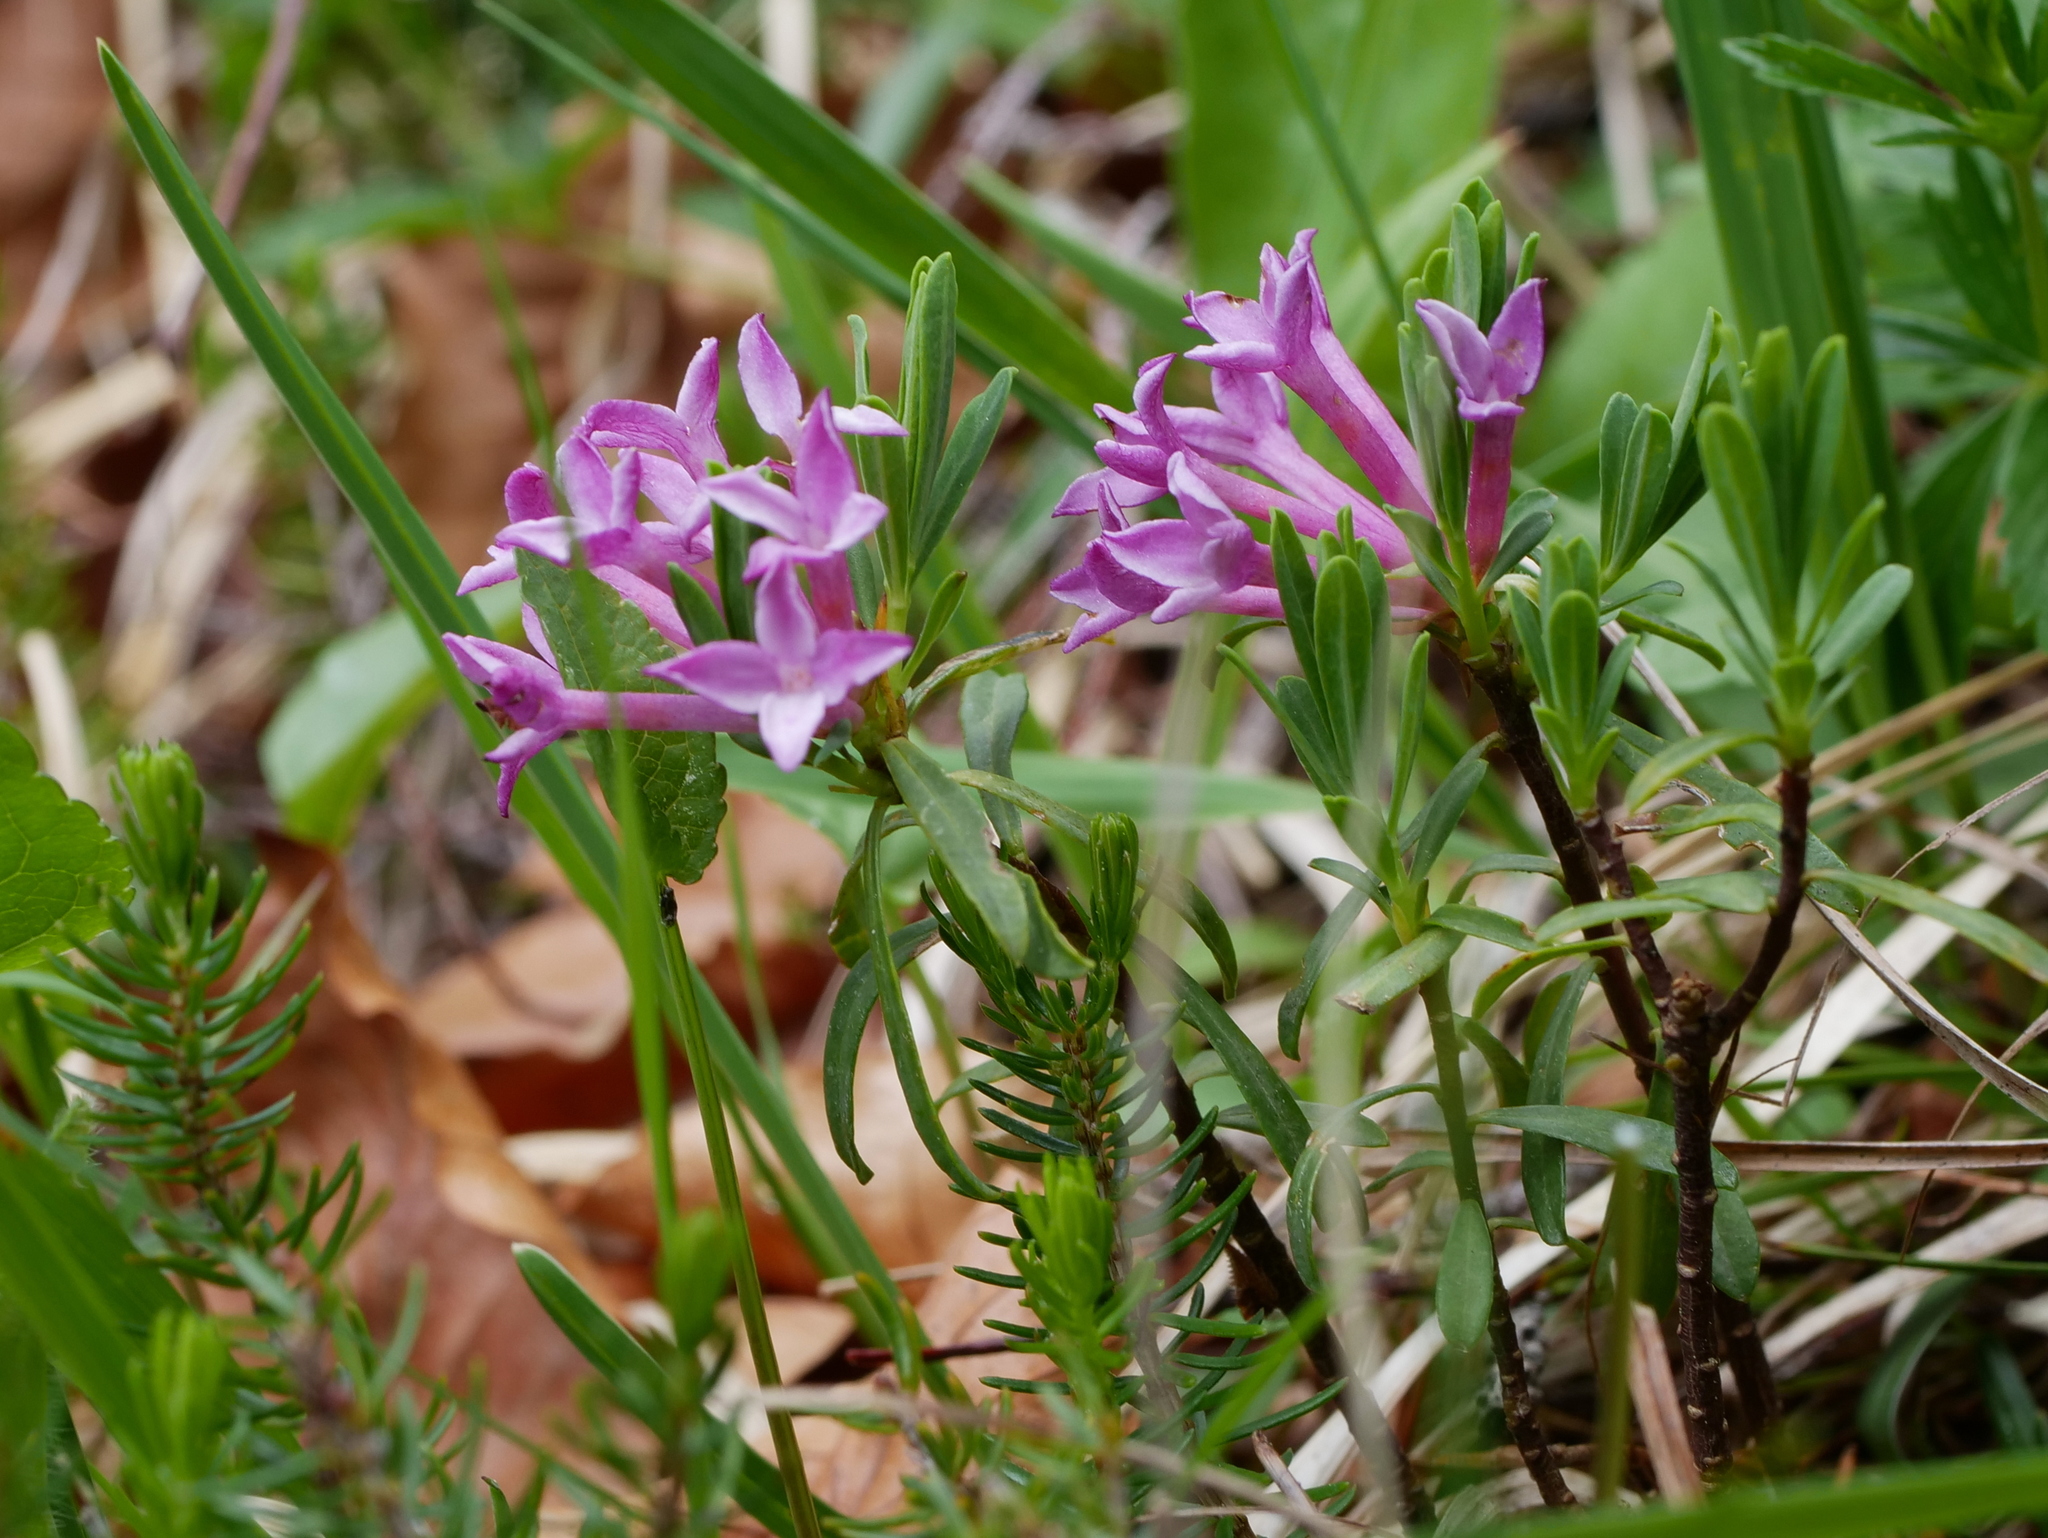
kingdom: Plantae
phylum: Tracheophyta
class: Magnoliopsida
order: Malvales
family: Thymelaeaceae
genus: Daphne
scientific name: Daphne striata
